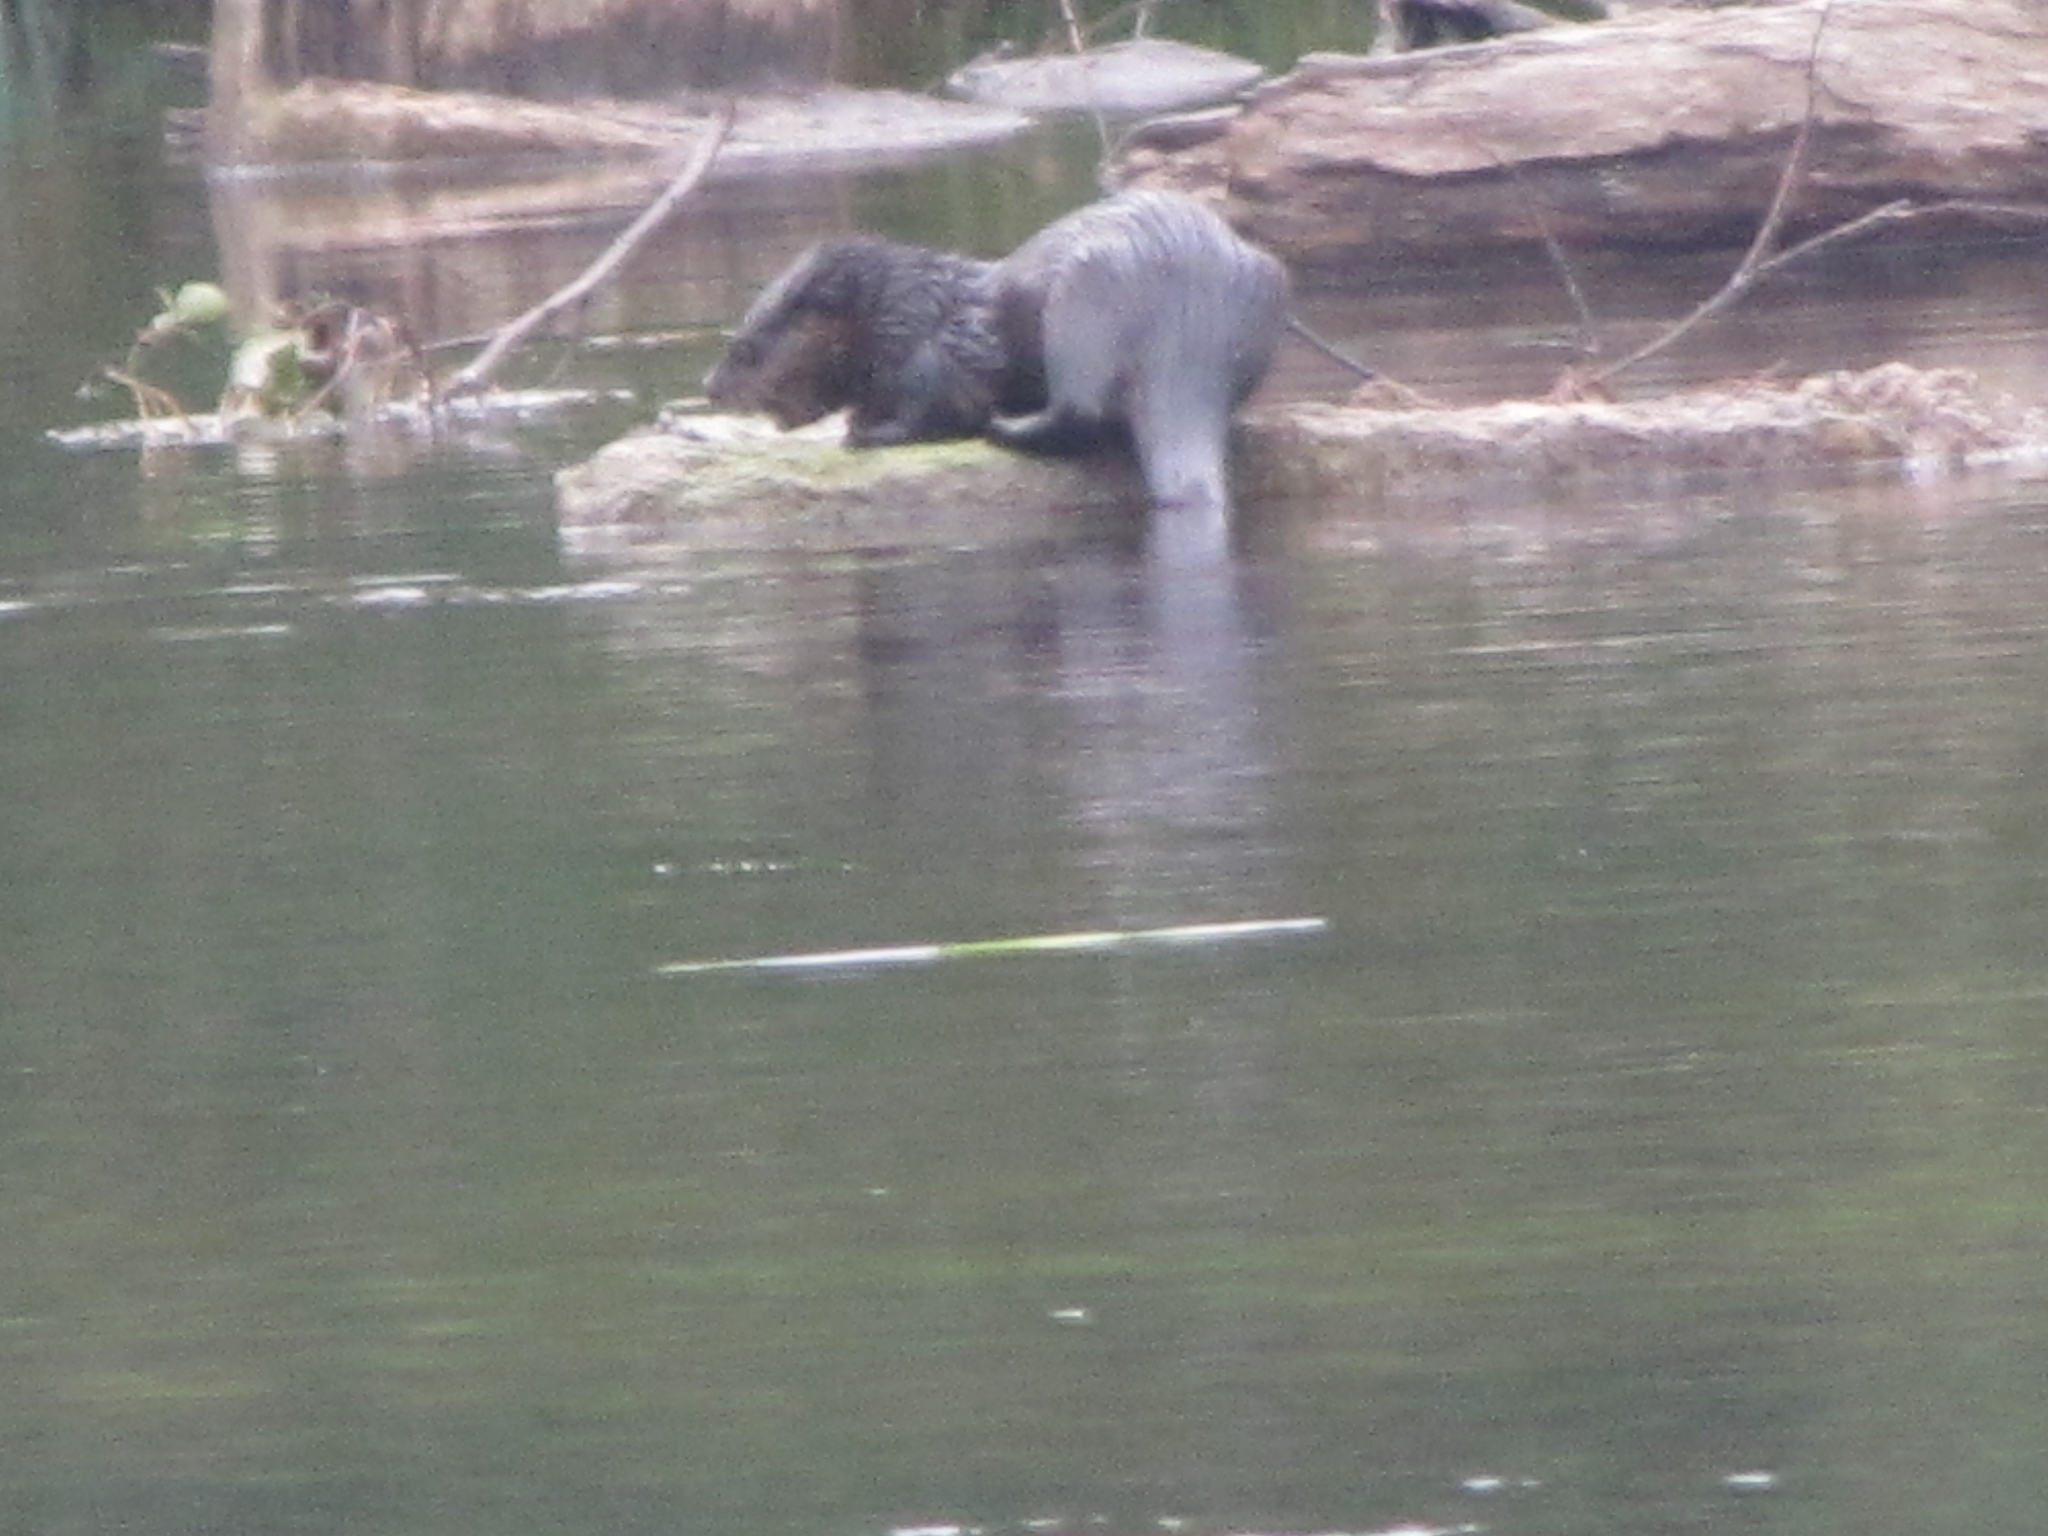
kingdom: Animalia
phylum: Chordata
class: Mammalia
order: Carnivora
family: Mustelidae
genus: Lontra
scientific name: Lontra canadensis
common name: North american river otter
